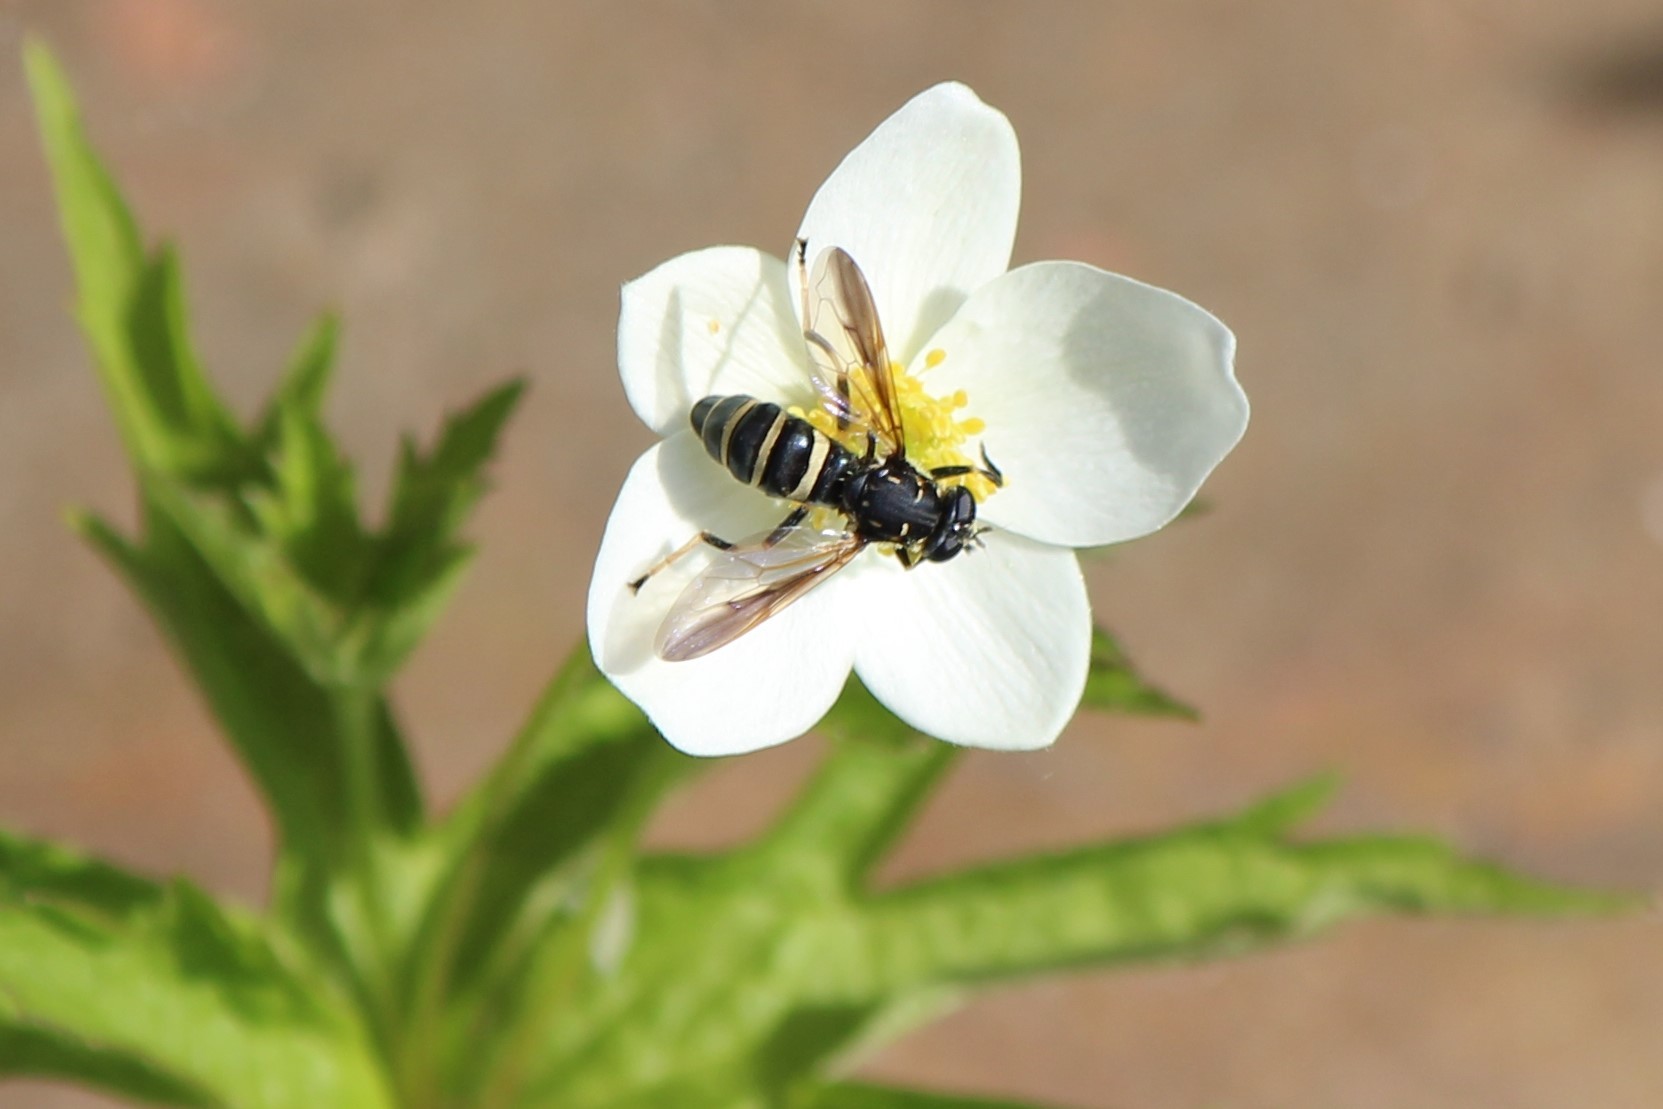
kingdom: Animalia
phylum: Arthropoda
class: Insecta
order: Diptera
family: Syrphidae
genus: Temnostoma
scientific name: Temnostoma barberi
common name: Bare-bellied falsehorn
